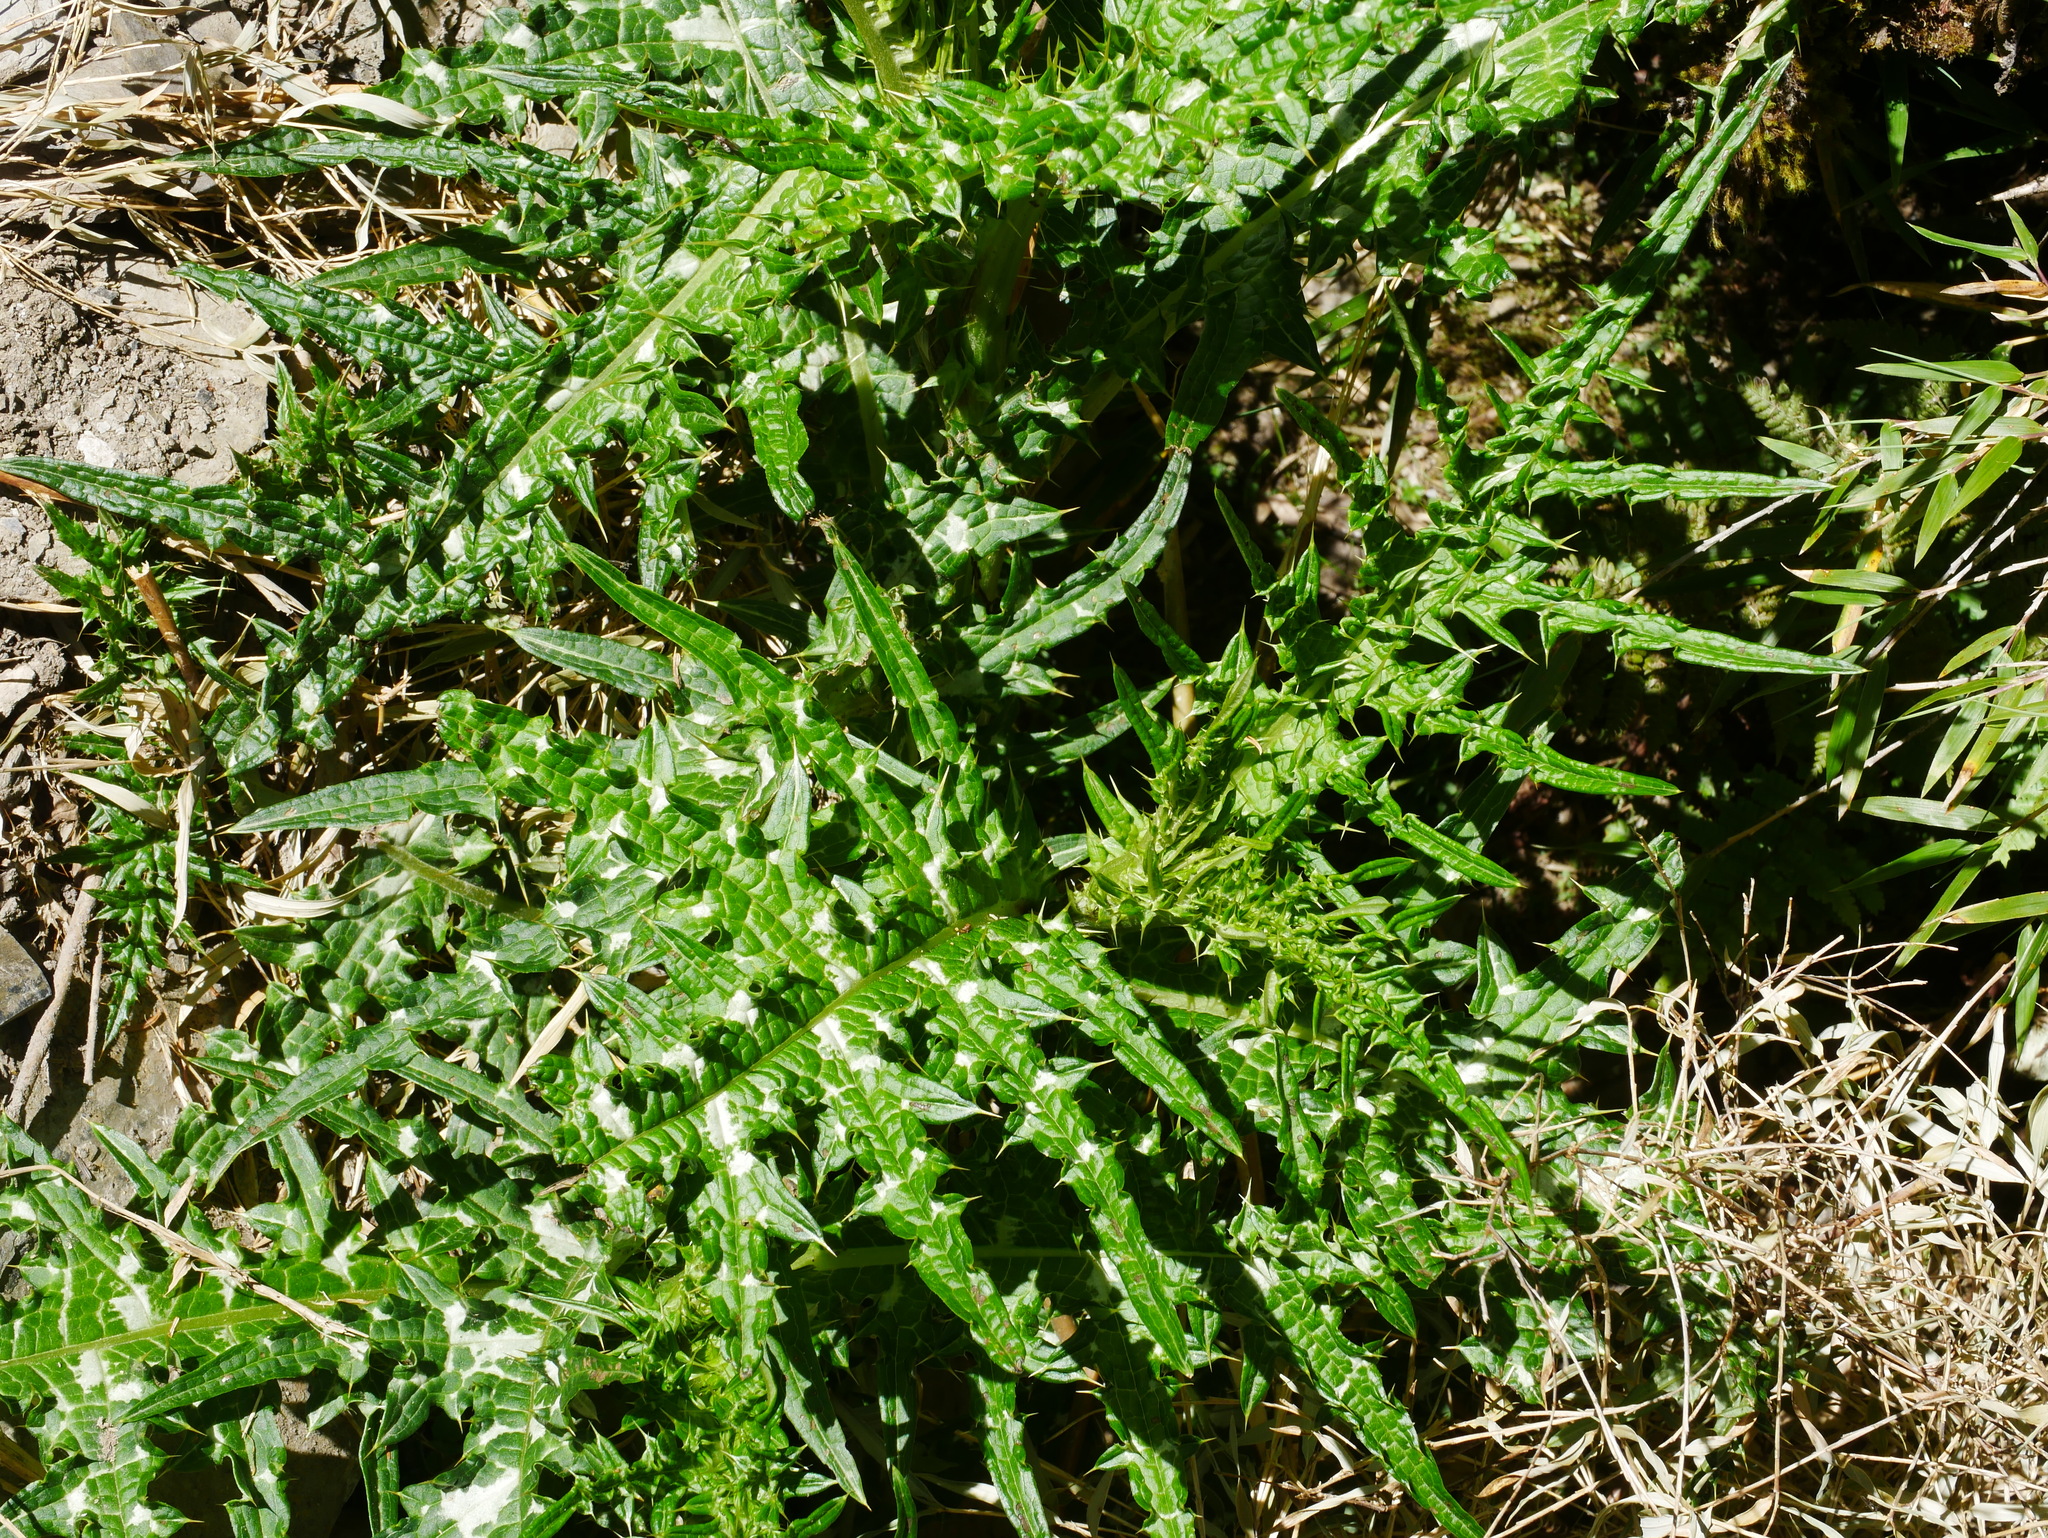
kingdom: Plantae
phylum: Tracheophyta
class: Magnoliopsida
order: Asterales
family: Asteraceae
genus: Cirsium
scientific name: Cirsium tatakaense
